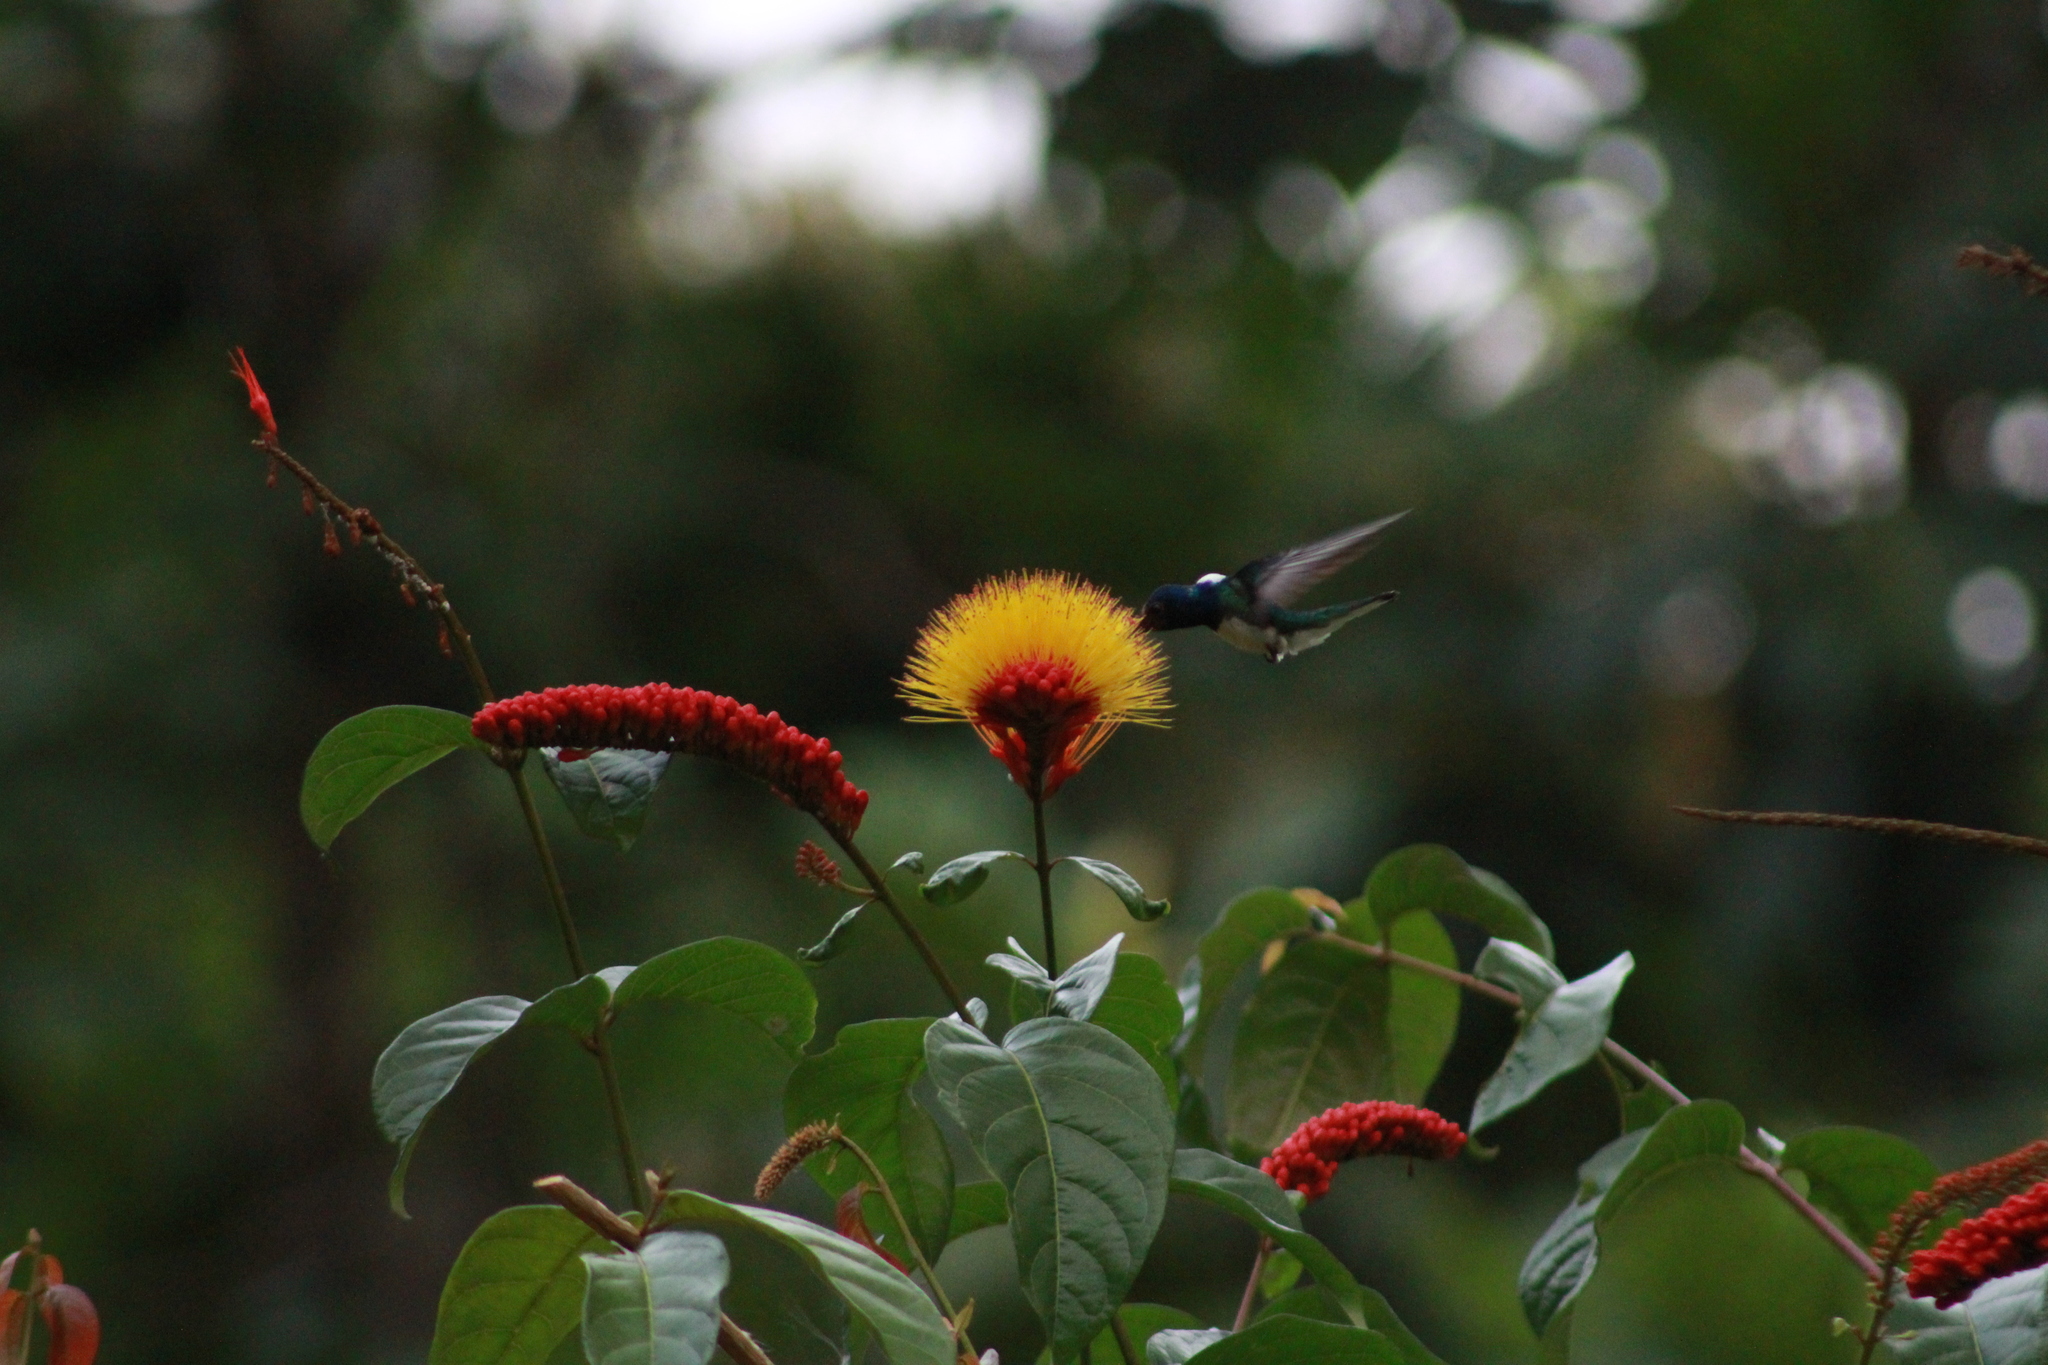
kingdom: Animalia
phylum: Chordata
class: Aves
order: Apodiformes
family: Trochilidae
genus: Florisuga
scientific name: Florisuga mellivora
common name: White-necked jacobin
